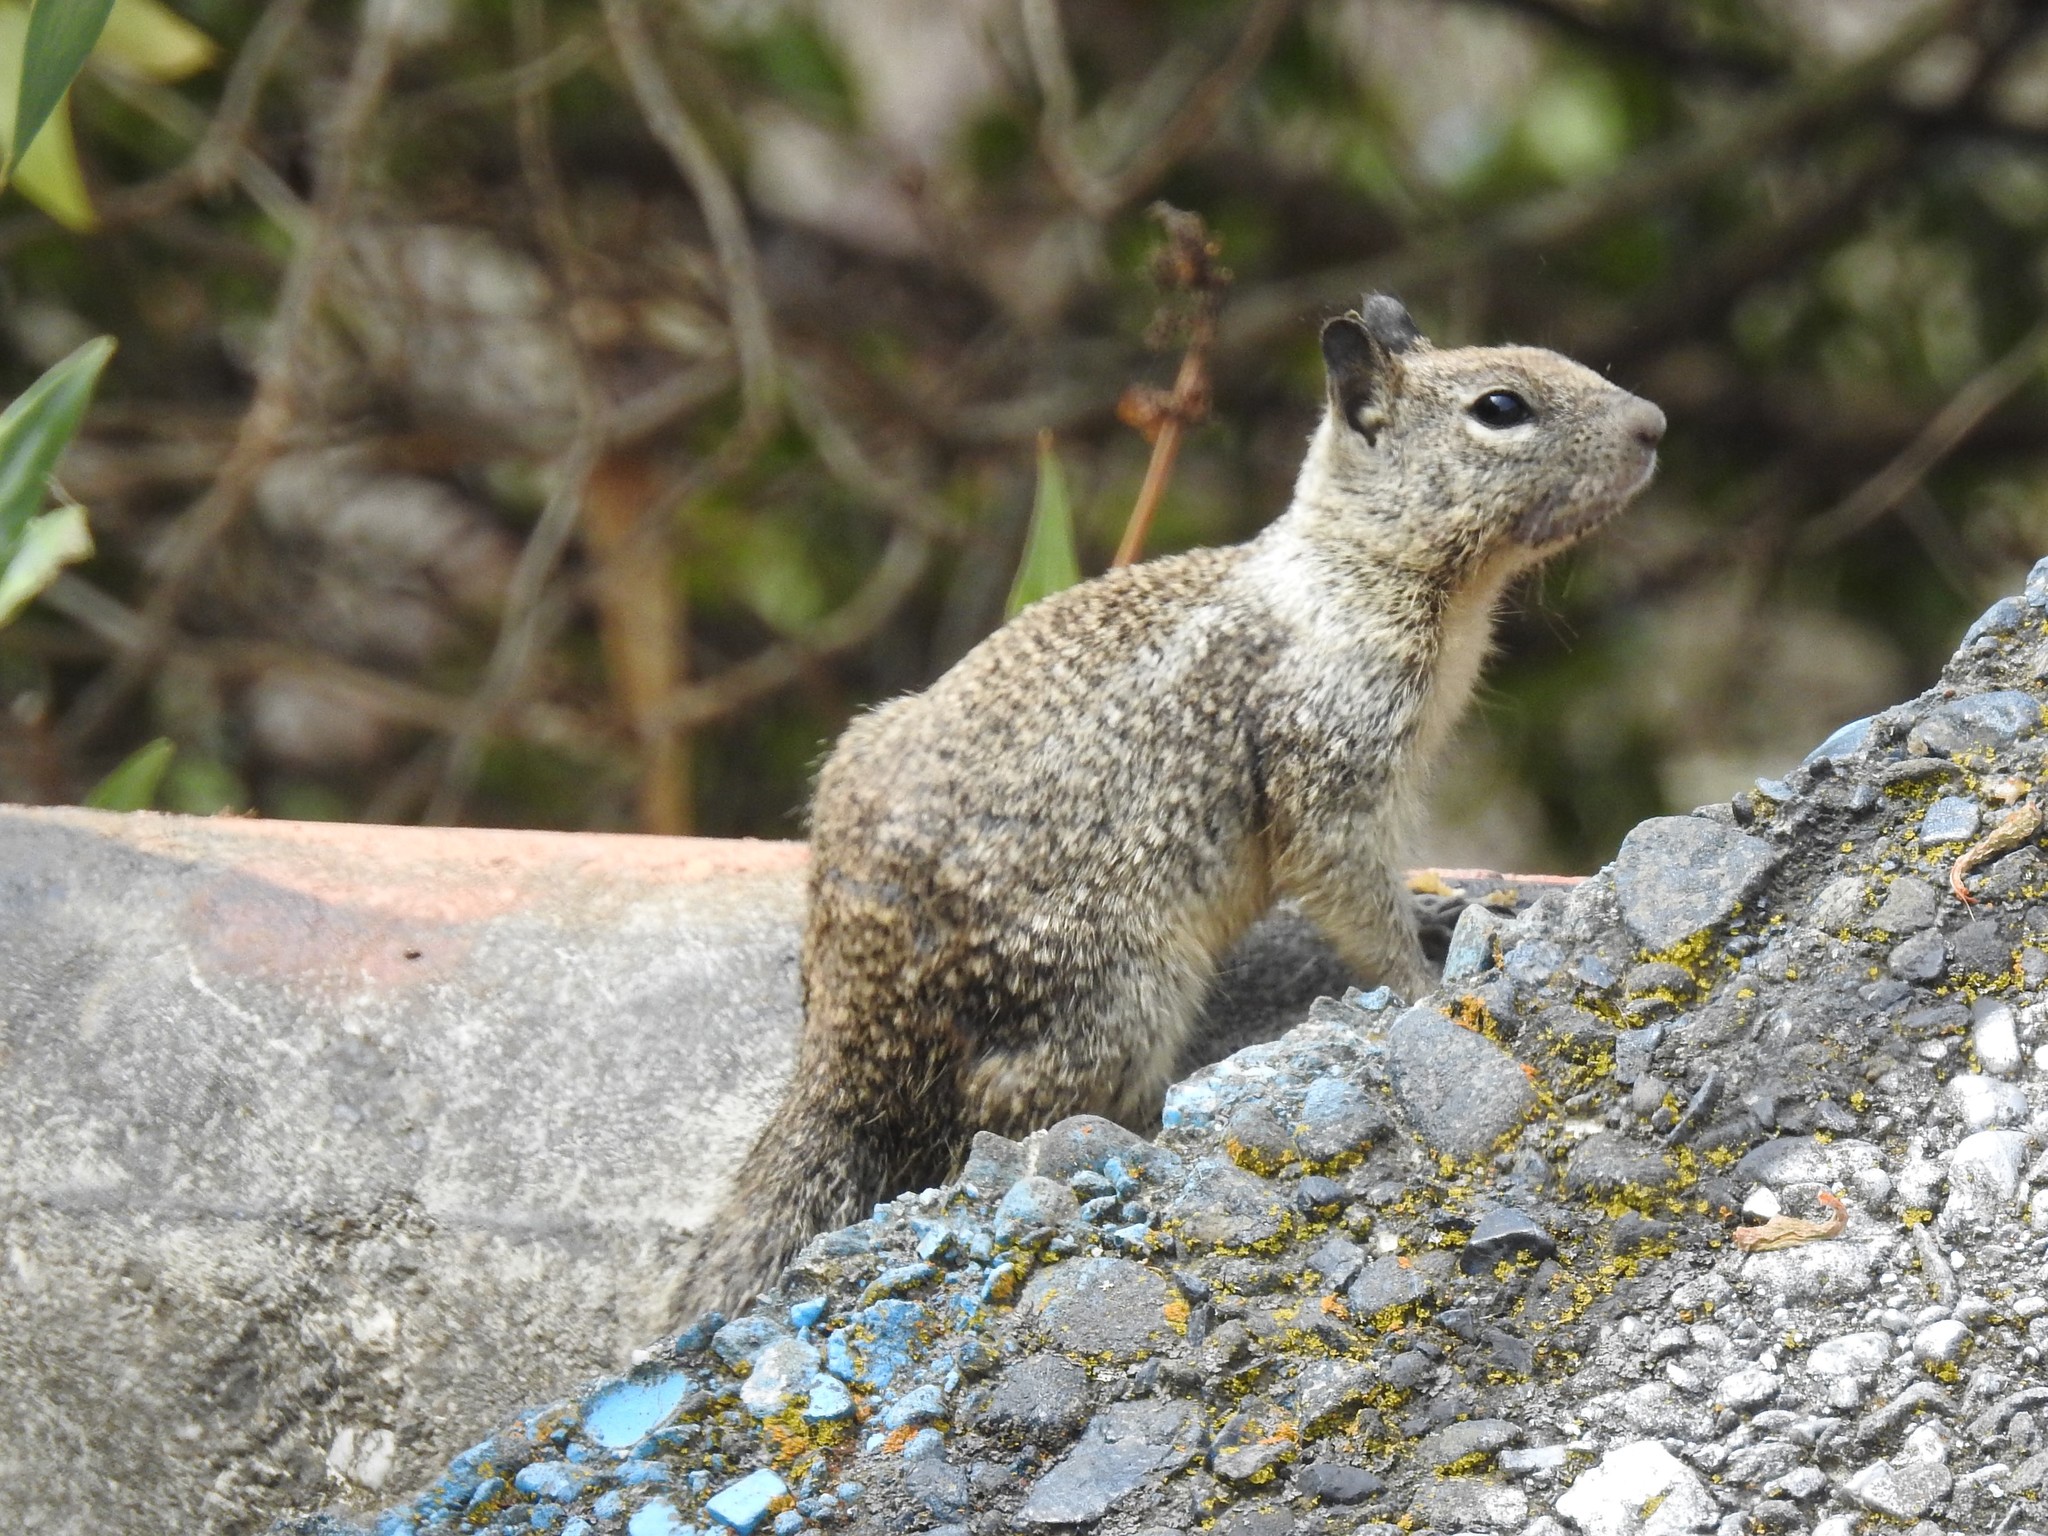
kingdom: Animalia
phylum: Chordata
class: Mammalia
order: Rodentia
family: Sciuridae
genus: Otospermophilus
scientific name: Otospermophilus beecheyi
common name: California ground squirrel
